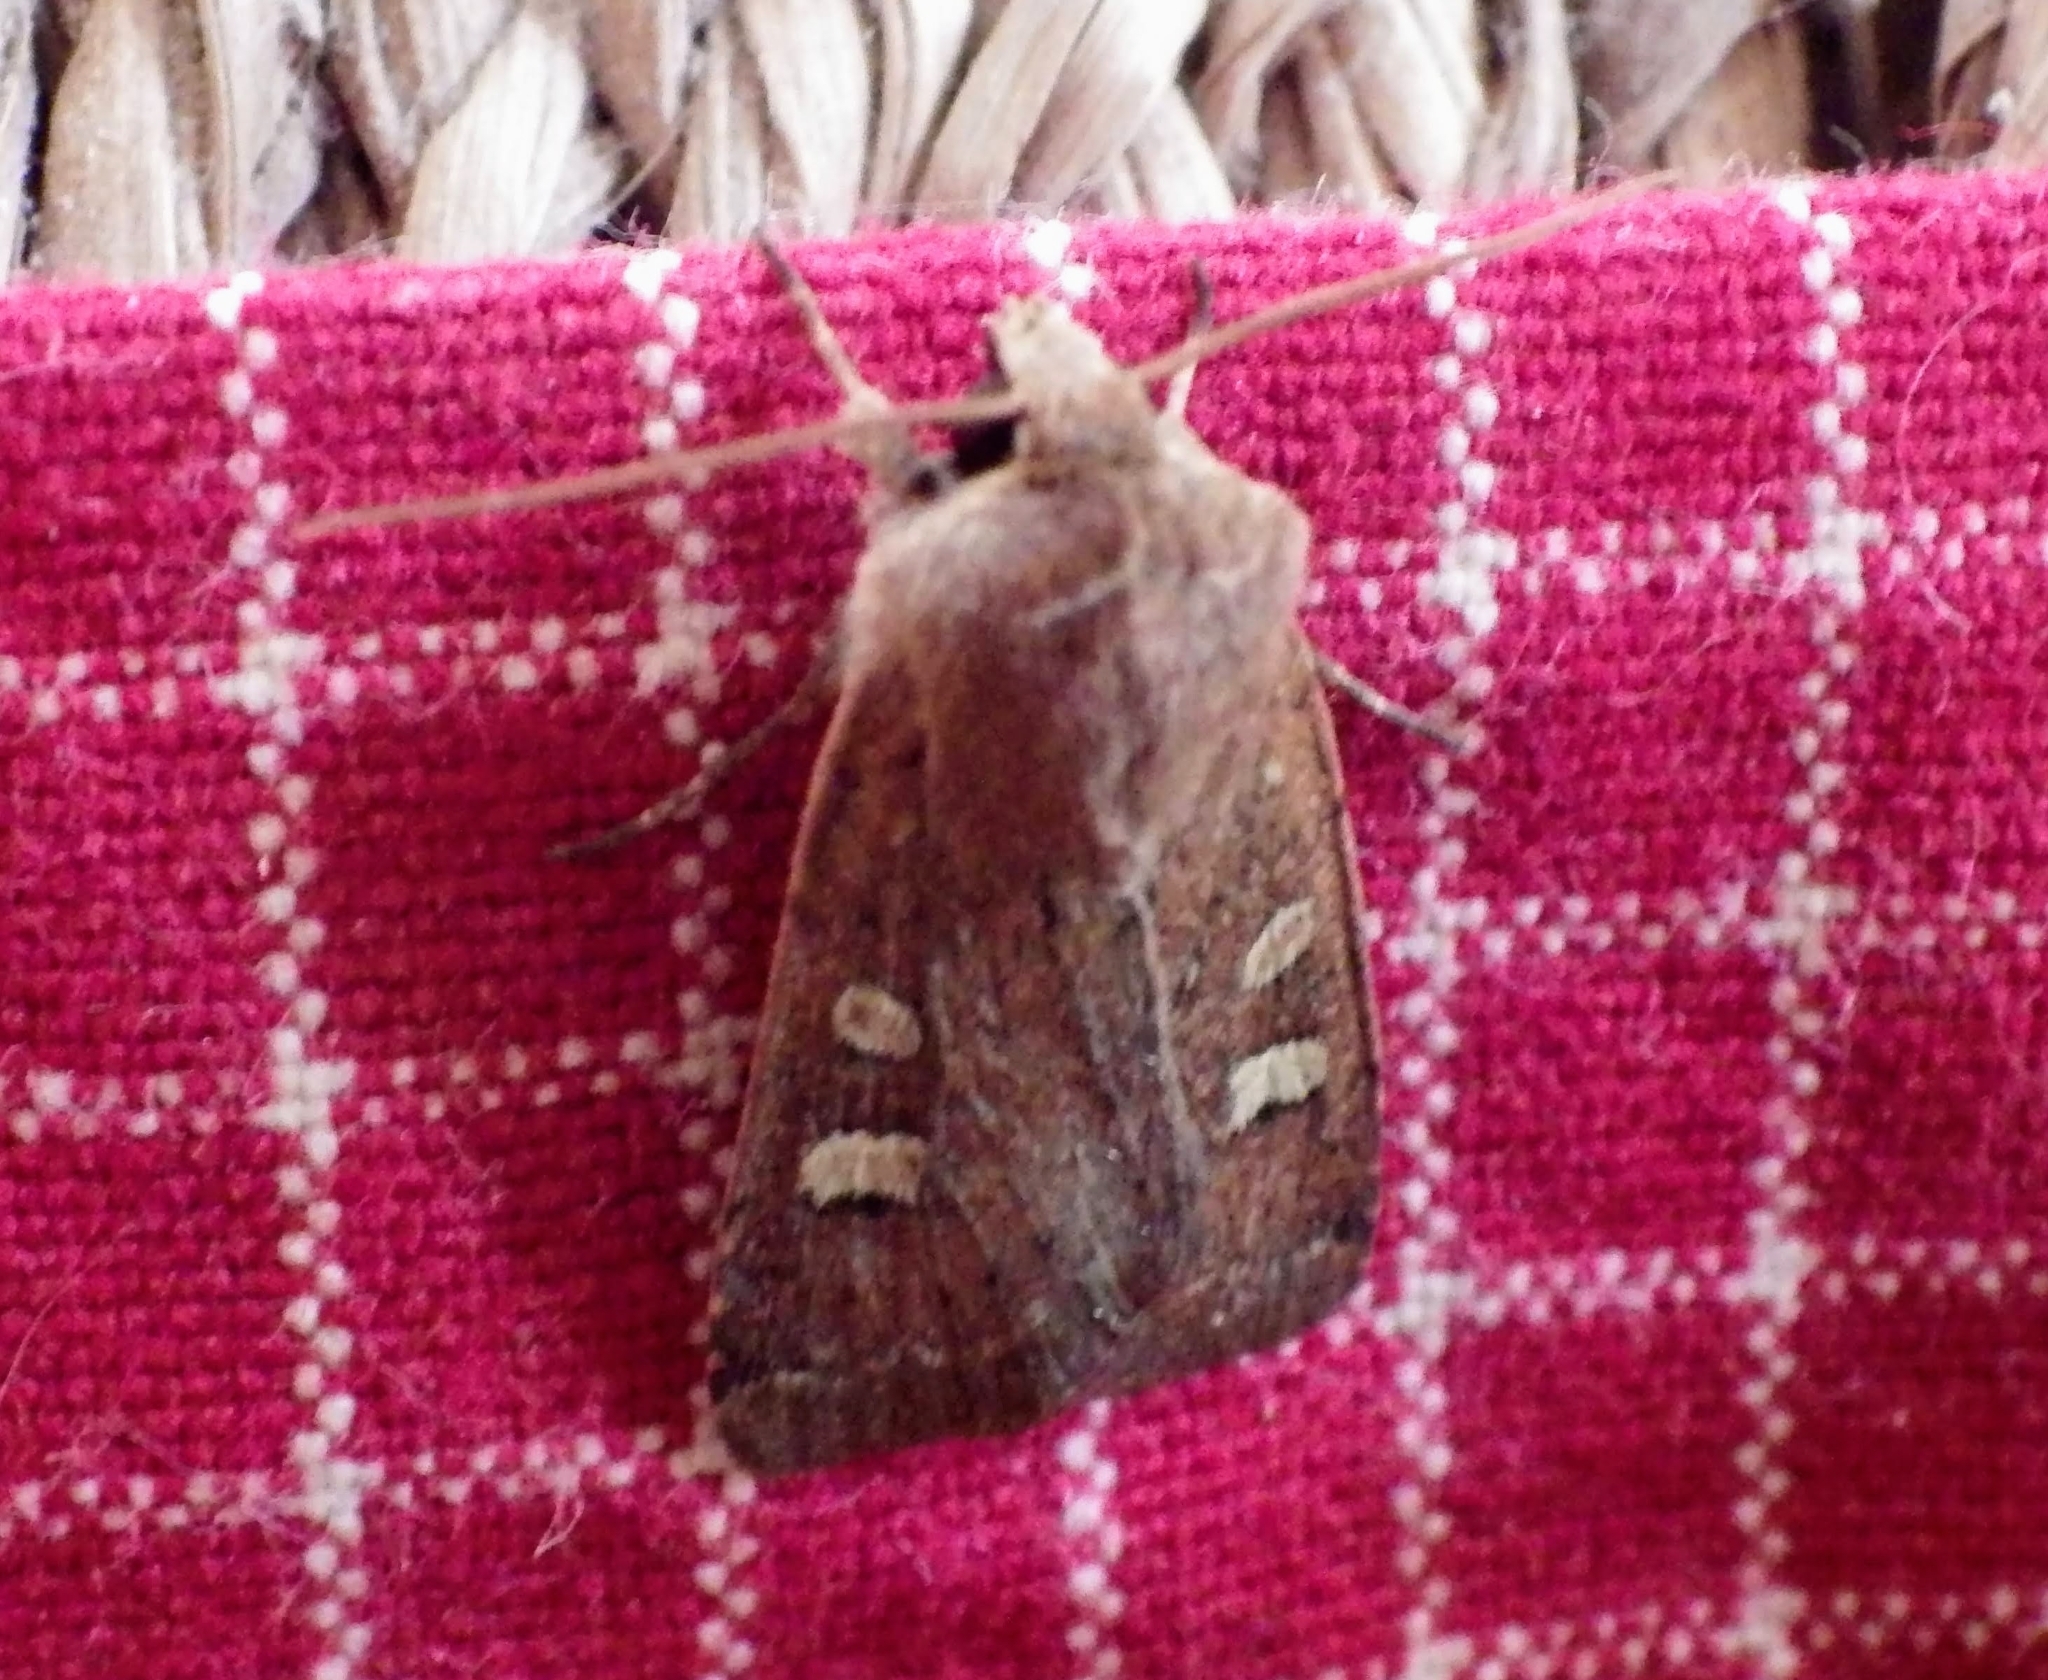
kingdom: Animalia
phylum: Arthropoda
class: Insecta
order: Lepidoptera
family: Noctuidae
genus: Xestia
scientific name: Xestia xanthographa
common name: Square-spot rustic
